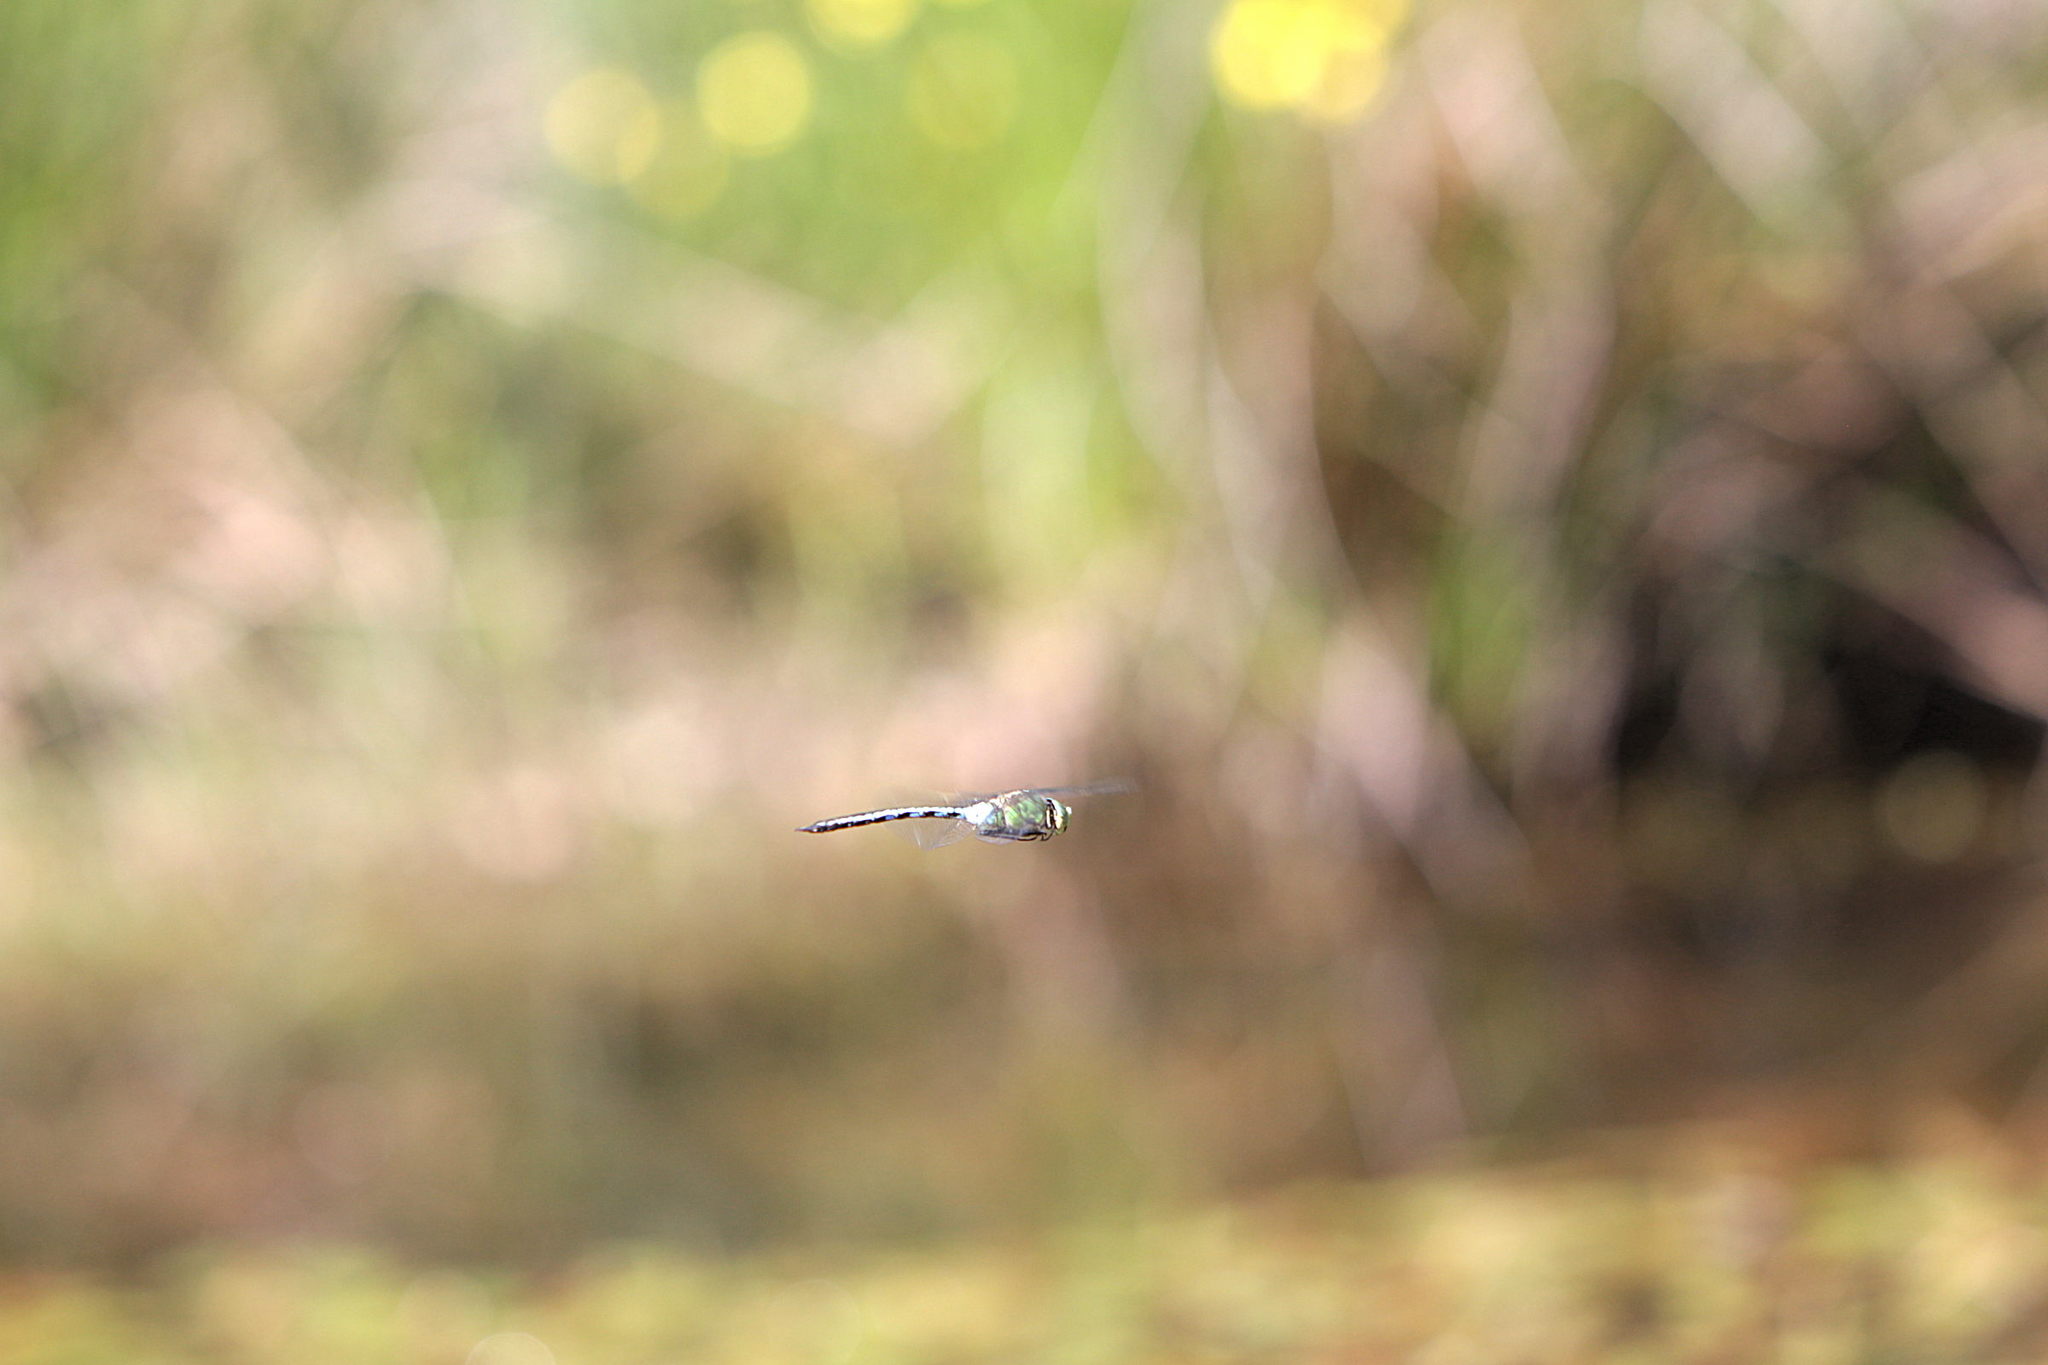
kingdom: Animalia
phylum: Arthropoda
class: Insecta
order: Odonata
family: Aeshnidae
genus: Anax
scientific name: Anax imperator
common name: Emperor dragonfly
